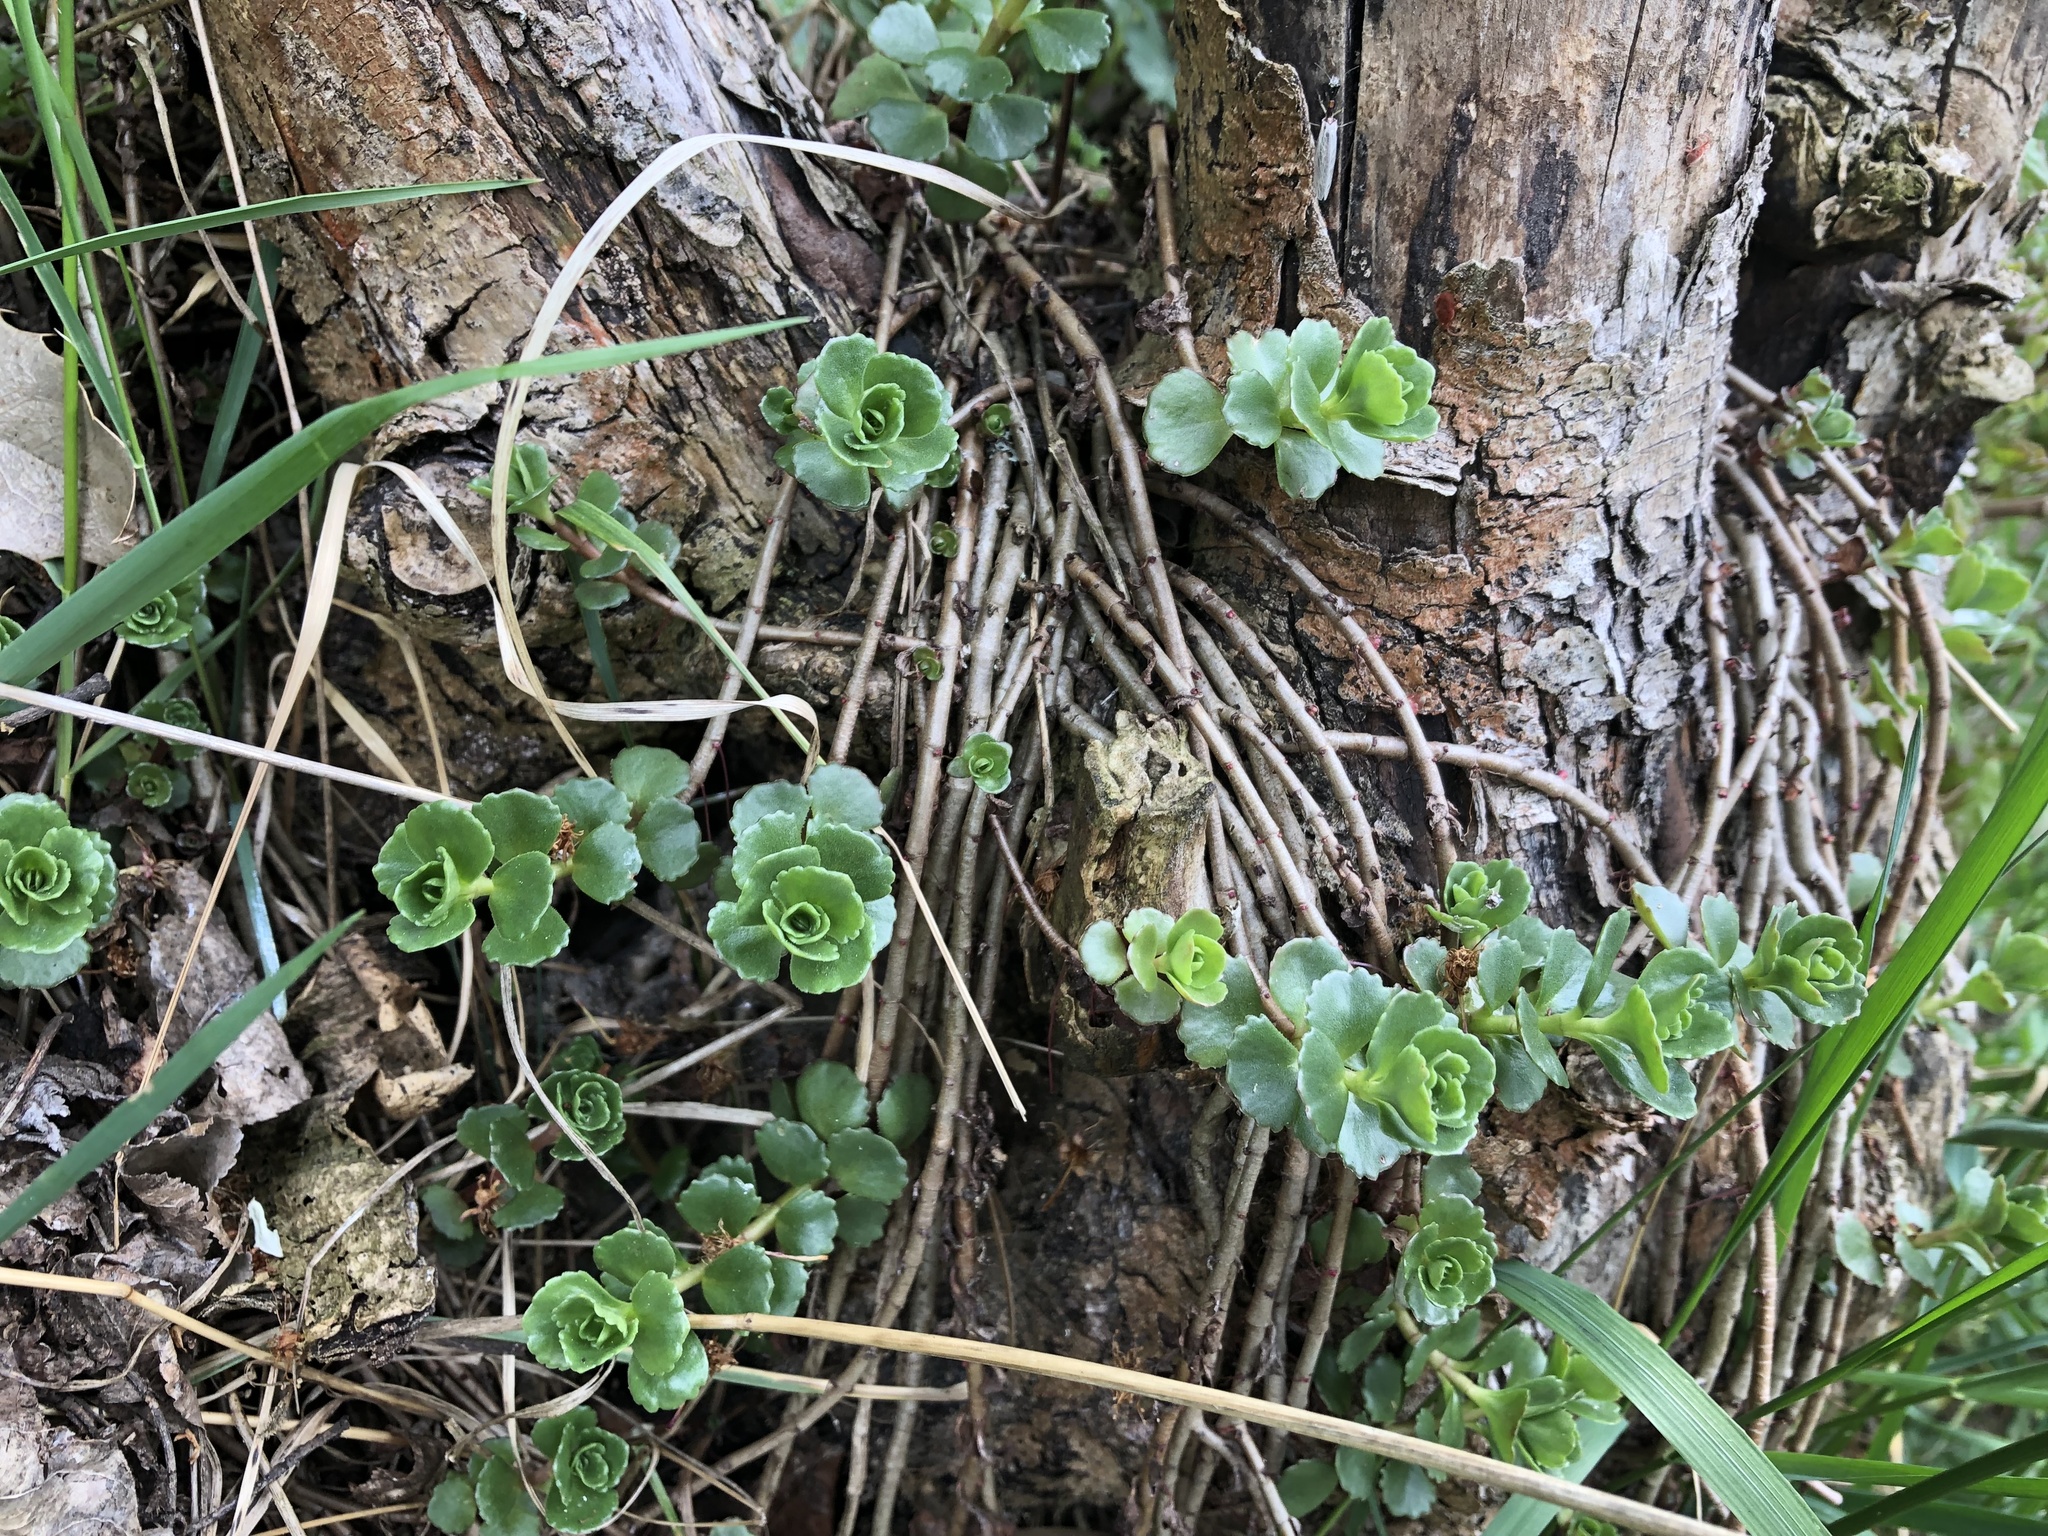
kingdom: Plantae
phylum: Tracheophyta
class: Magnoliopsida
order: Saxifragales
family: Crassulaceae
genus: Phedimus
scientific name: Phedimus spurius
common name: Caucasian stonecrop
